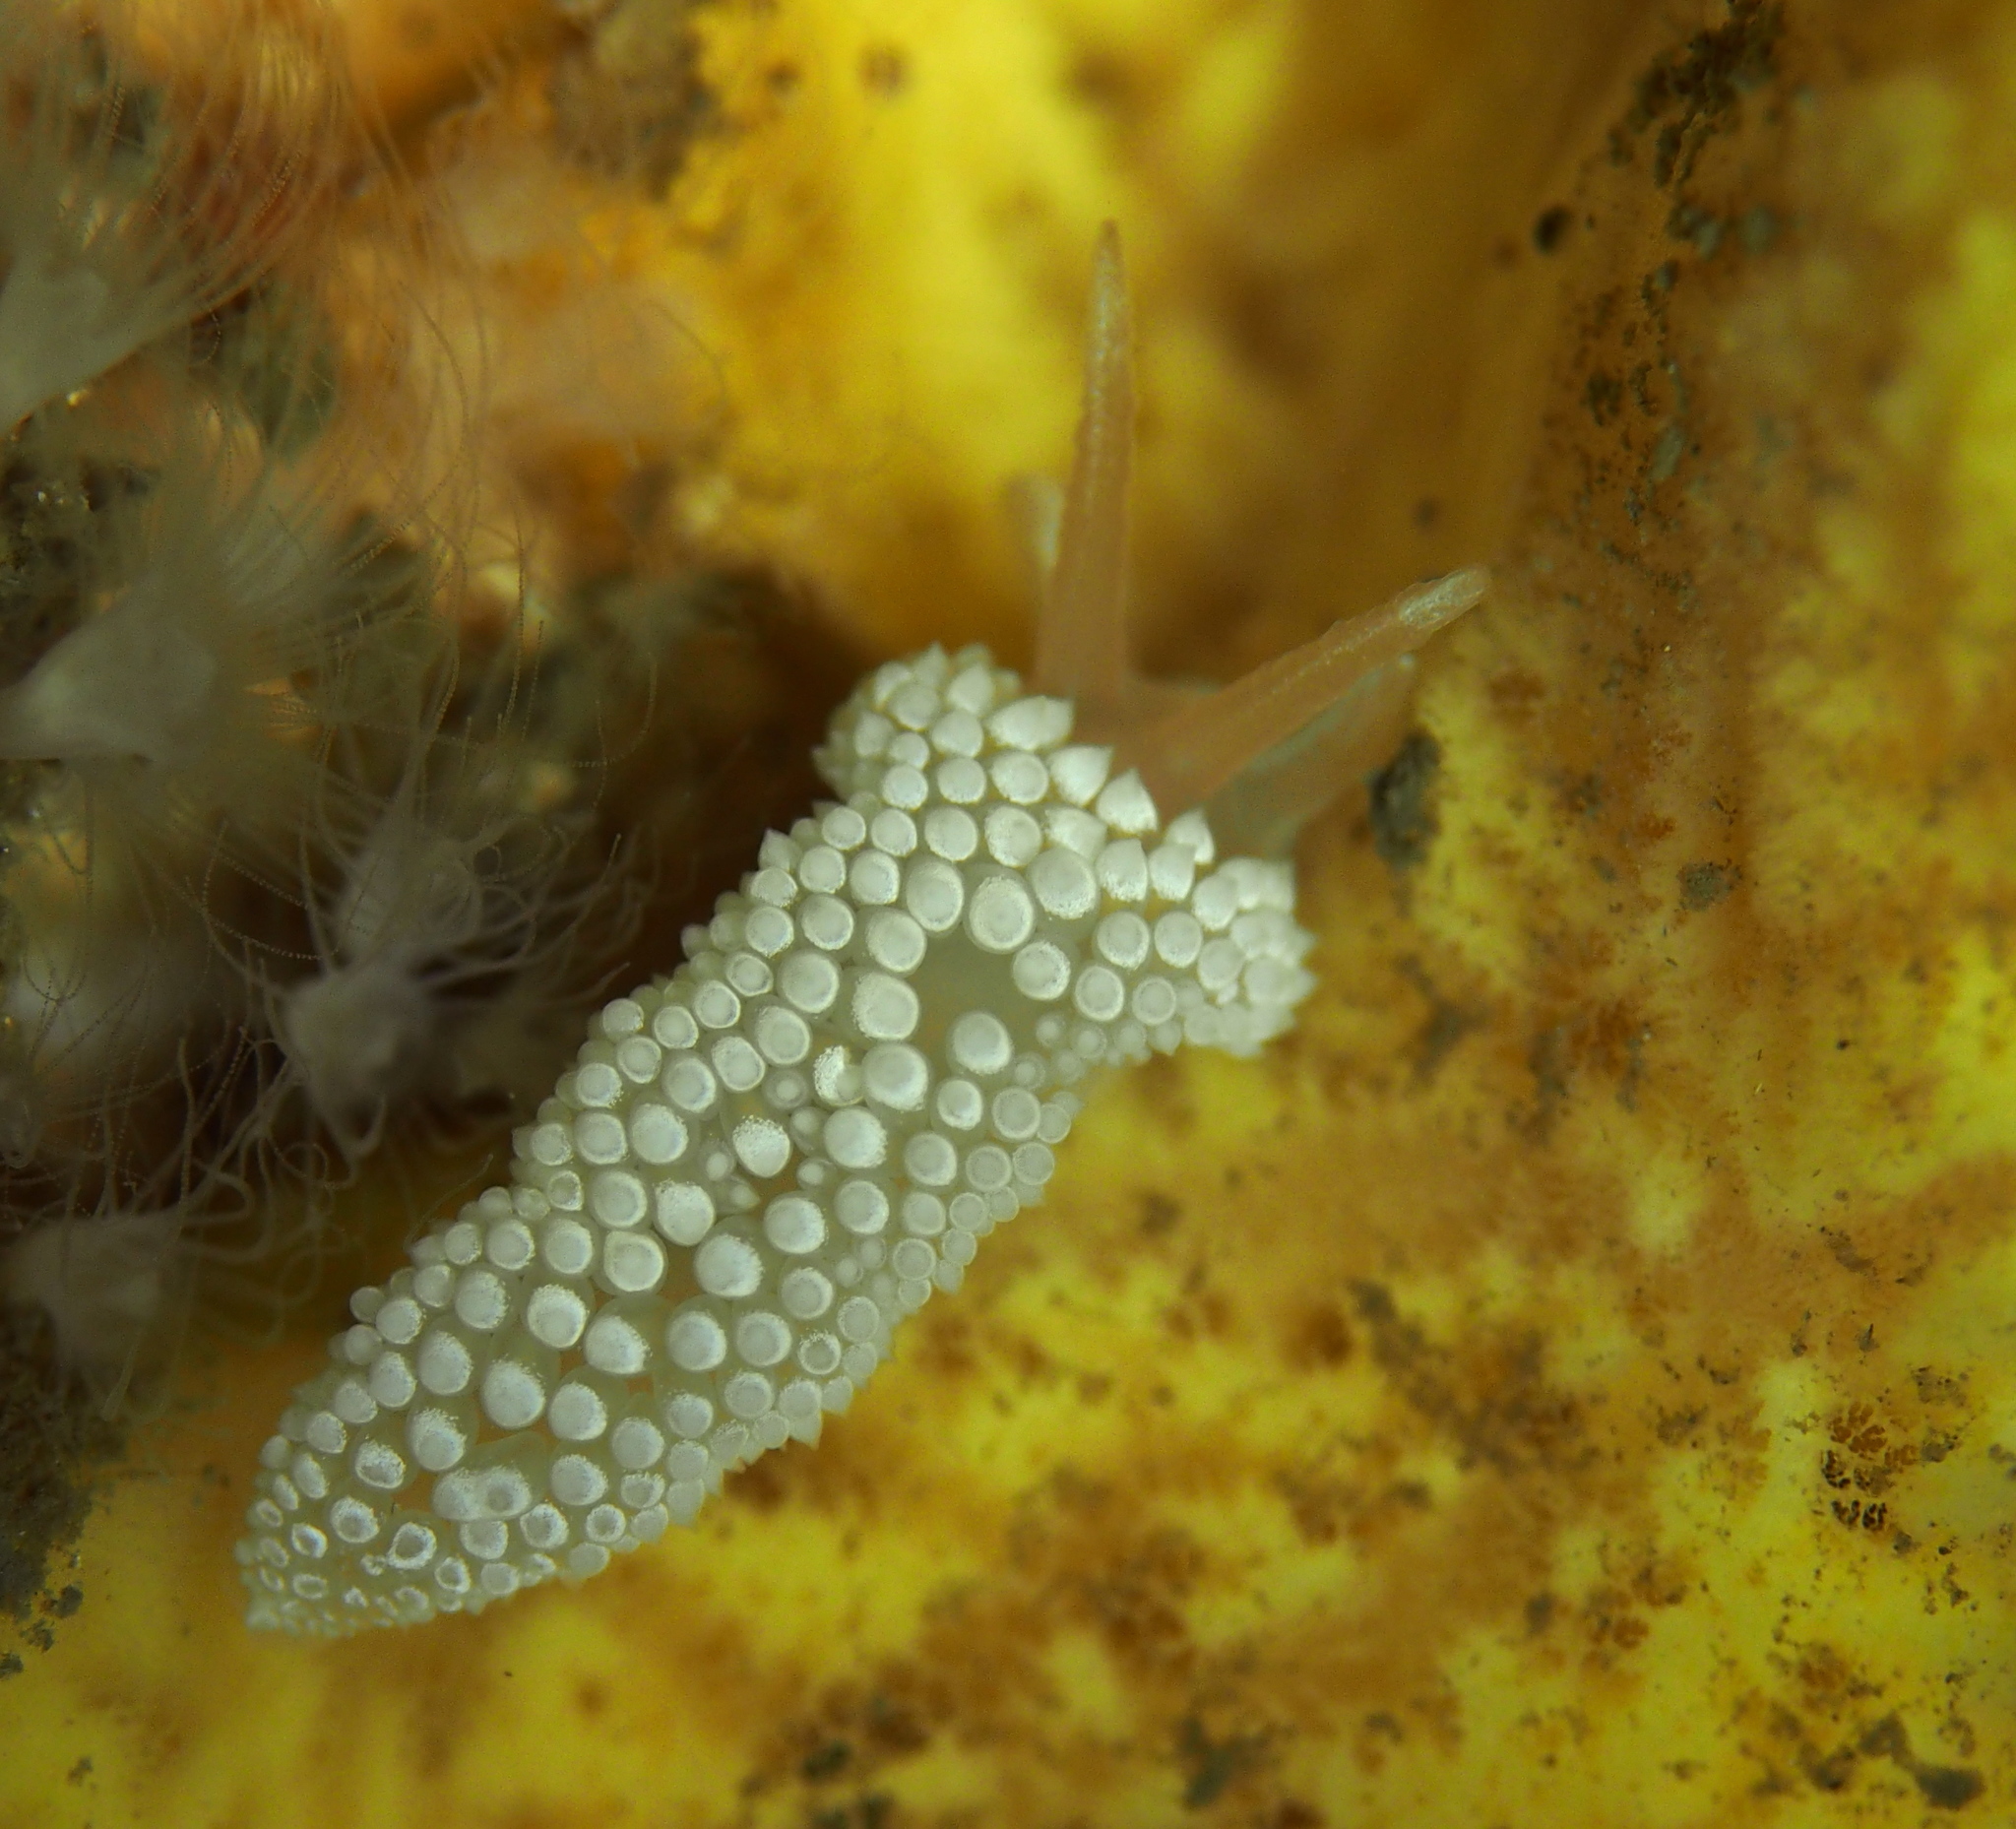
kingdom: Animalia
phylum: Mollusca
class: Gastropoda
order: Nudibranchia
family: Coryphellidae
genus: Coryphella
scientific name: Coryphella verrucosa
